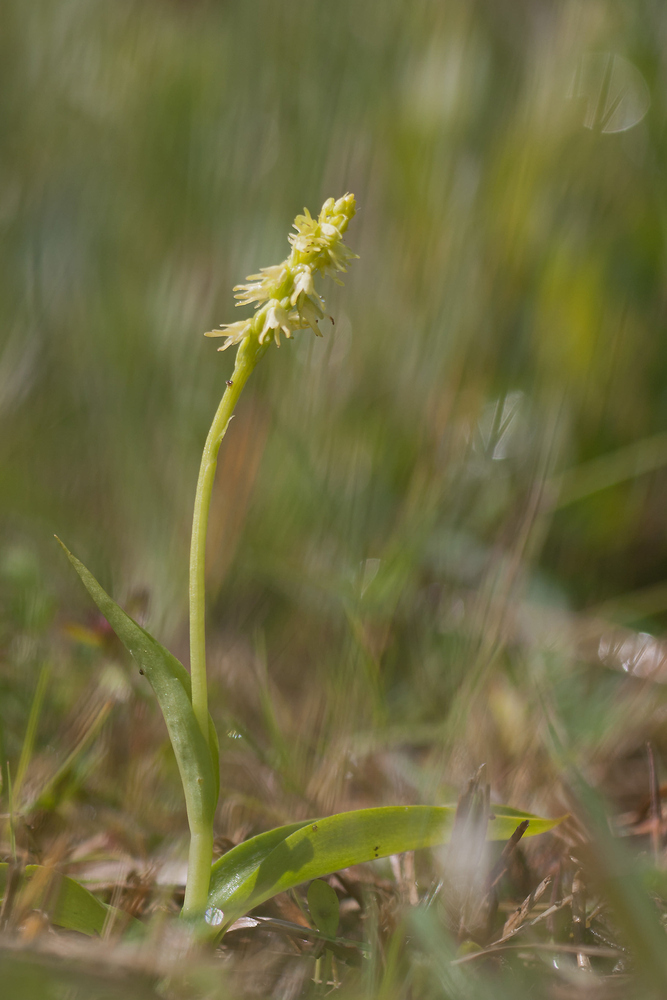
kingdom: Plantae
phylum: Tracheophyta
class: Liliopsida
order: Asparagales
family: Orchidaceae
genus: Herminium
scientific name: Herminium monorchis
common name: Musk orchid
